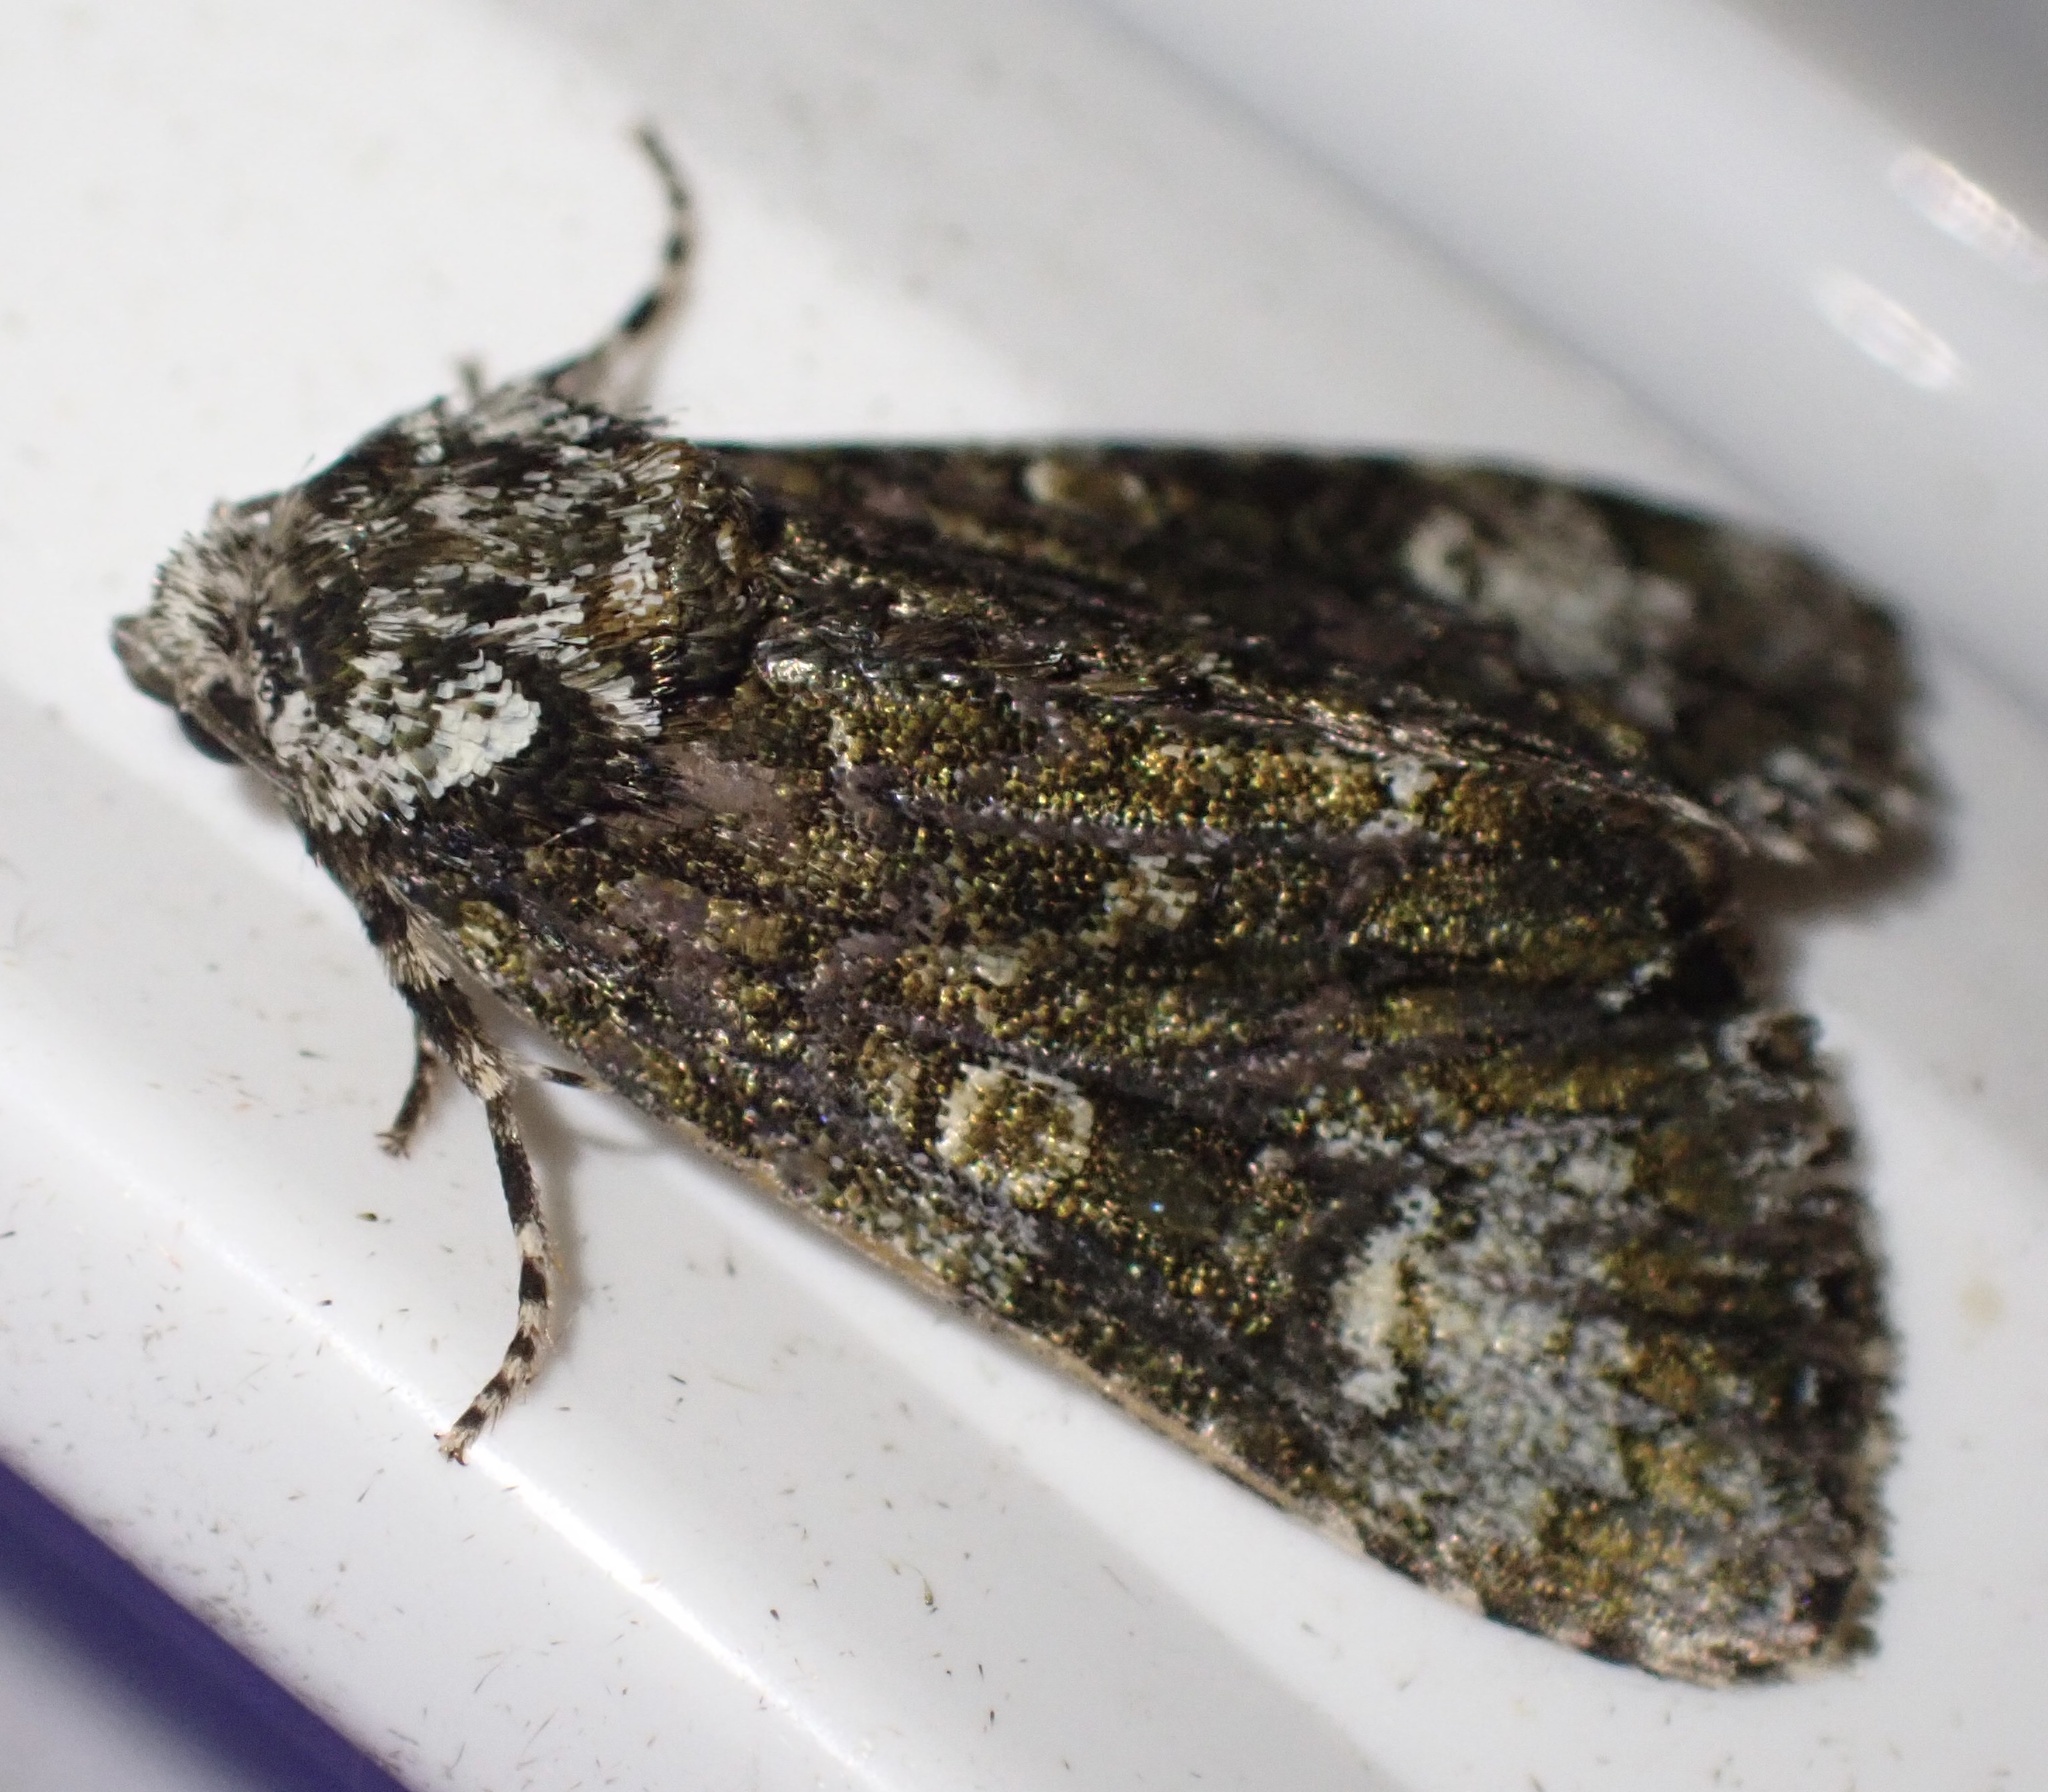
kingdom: Animalia
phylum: Arthropoda
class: Insecta
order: Lepidoptera
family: Noctuidae
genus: Craniophora
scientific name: Craniophora ligustri
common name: Coronet
